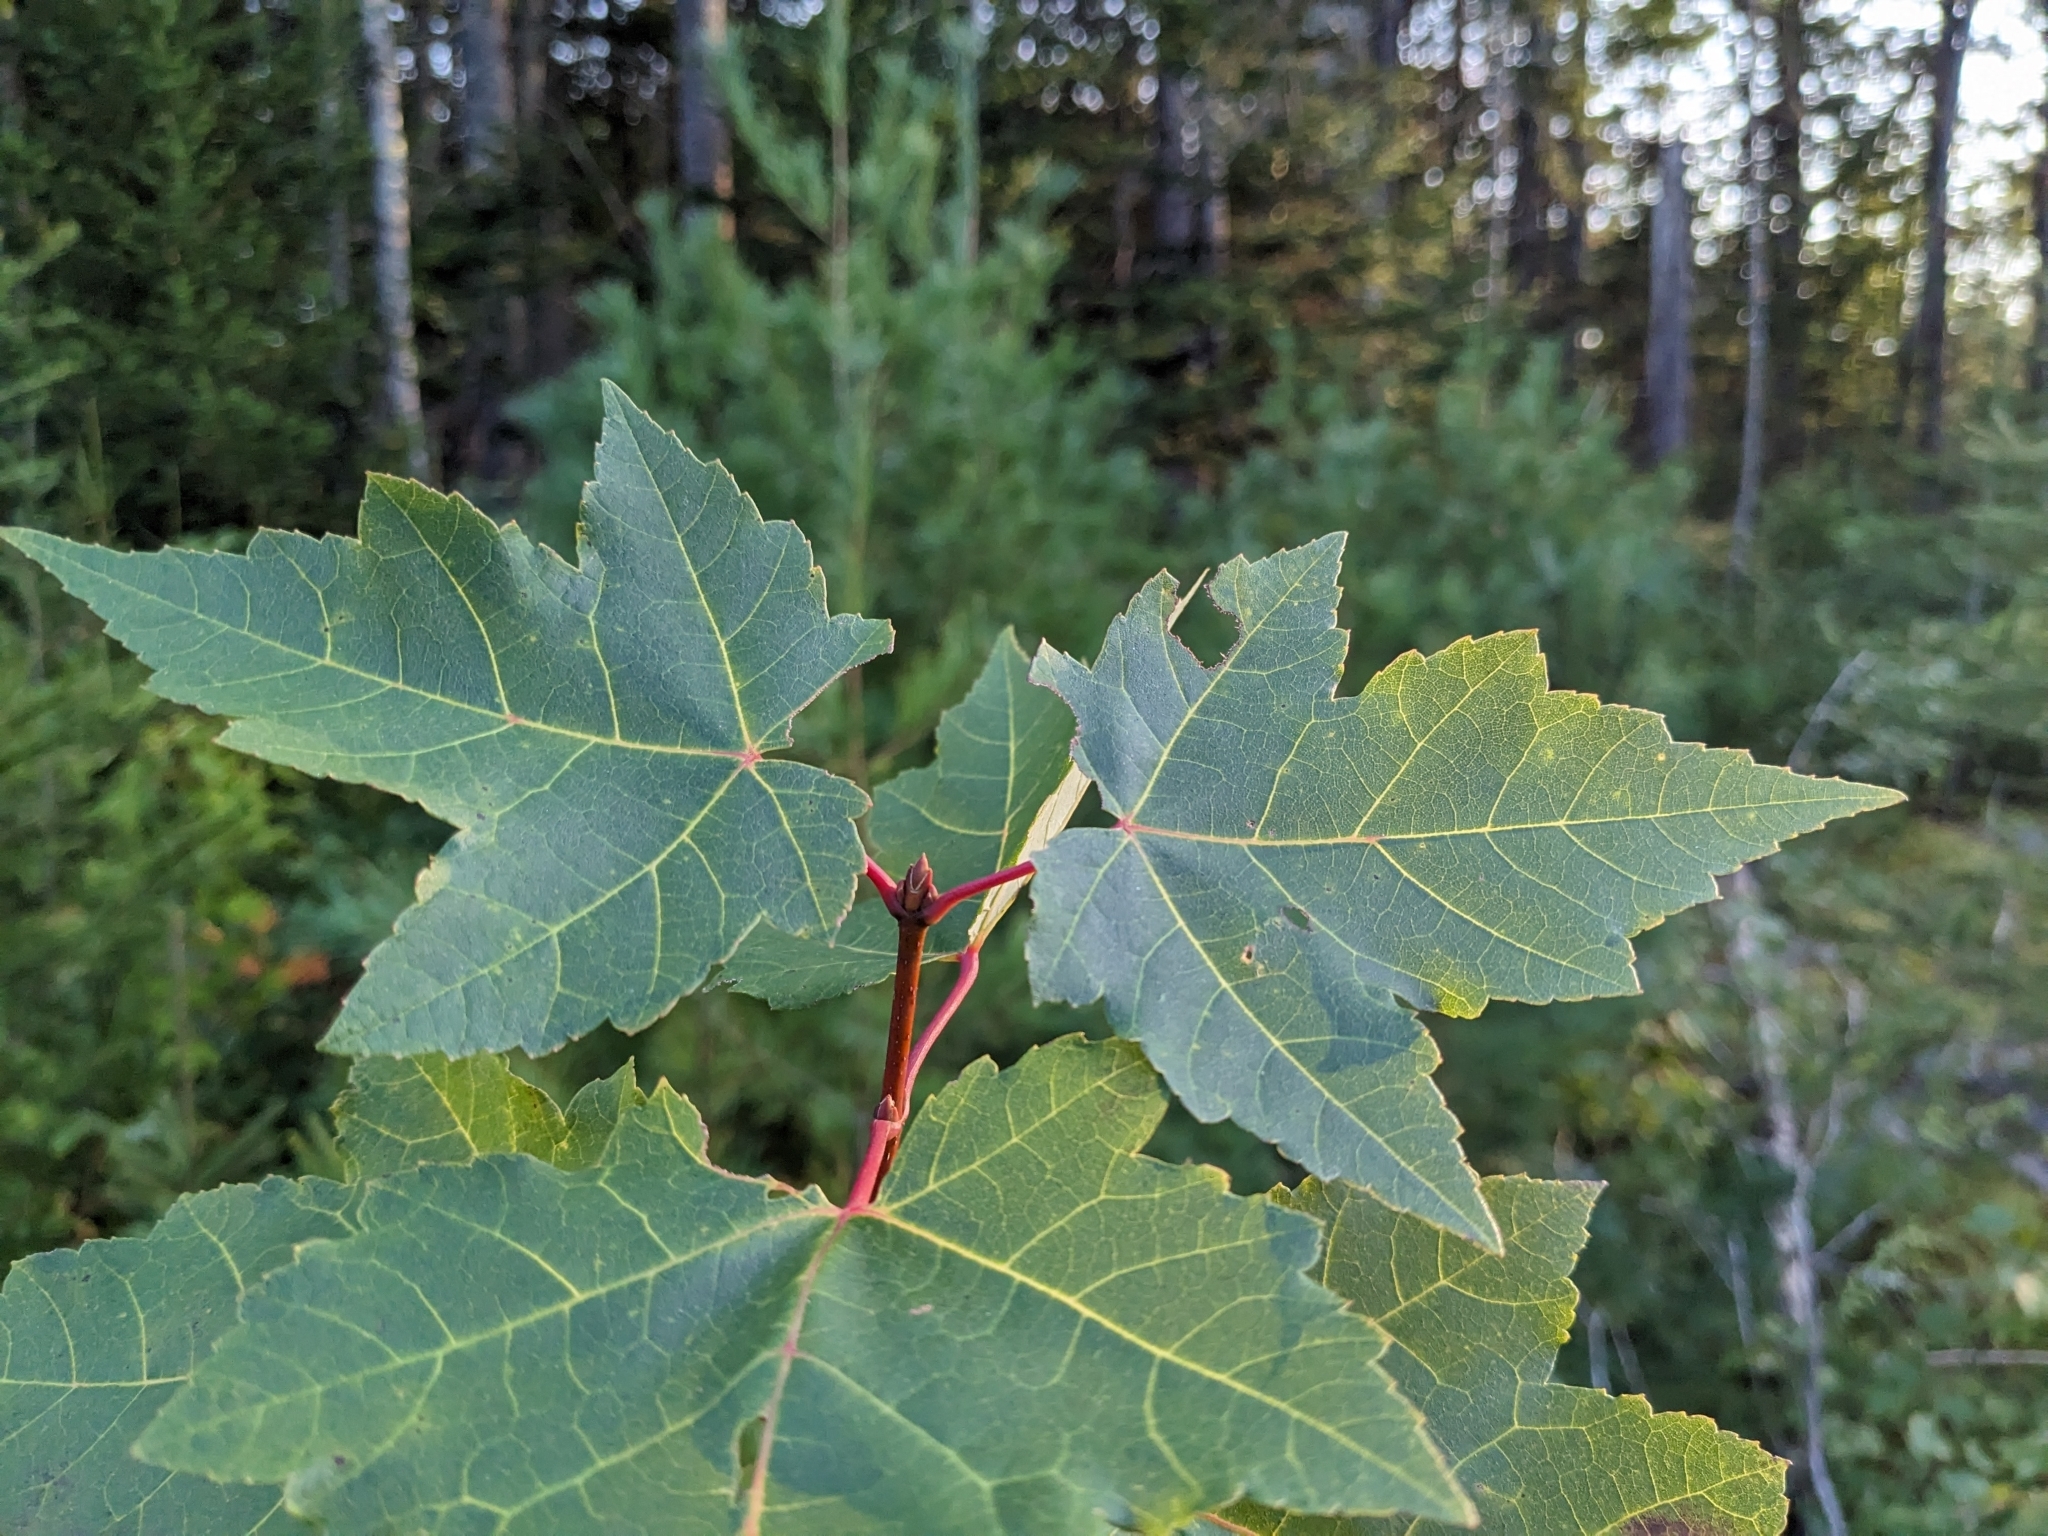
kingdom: Plantae
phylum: Tracheophyta
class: Magnoliopsida
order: Sapindales
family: Sapindaceae
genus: Acer
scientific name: Acer rubrum
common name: Red maple
